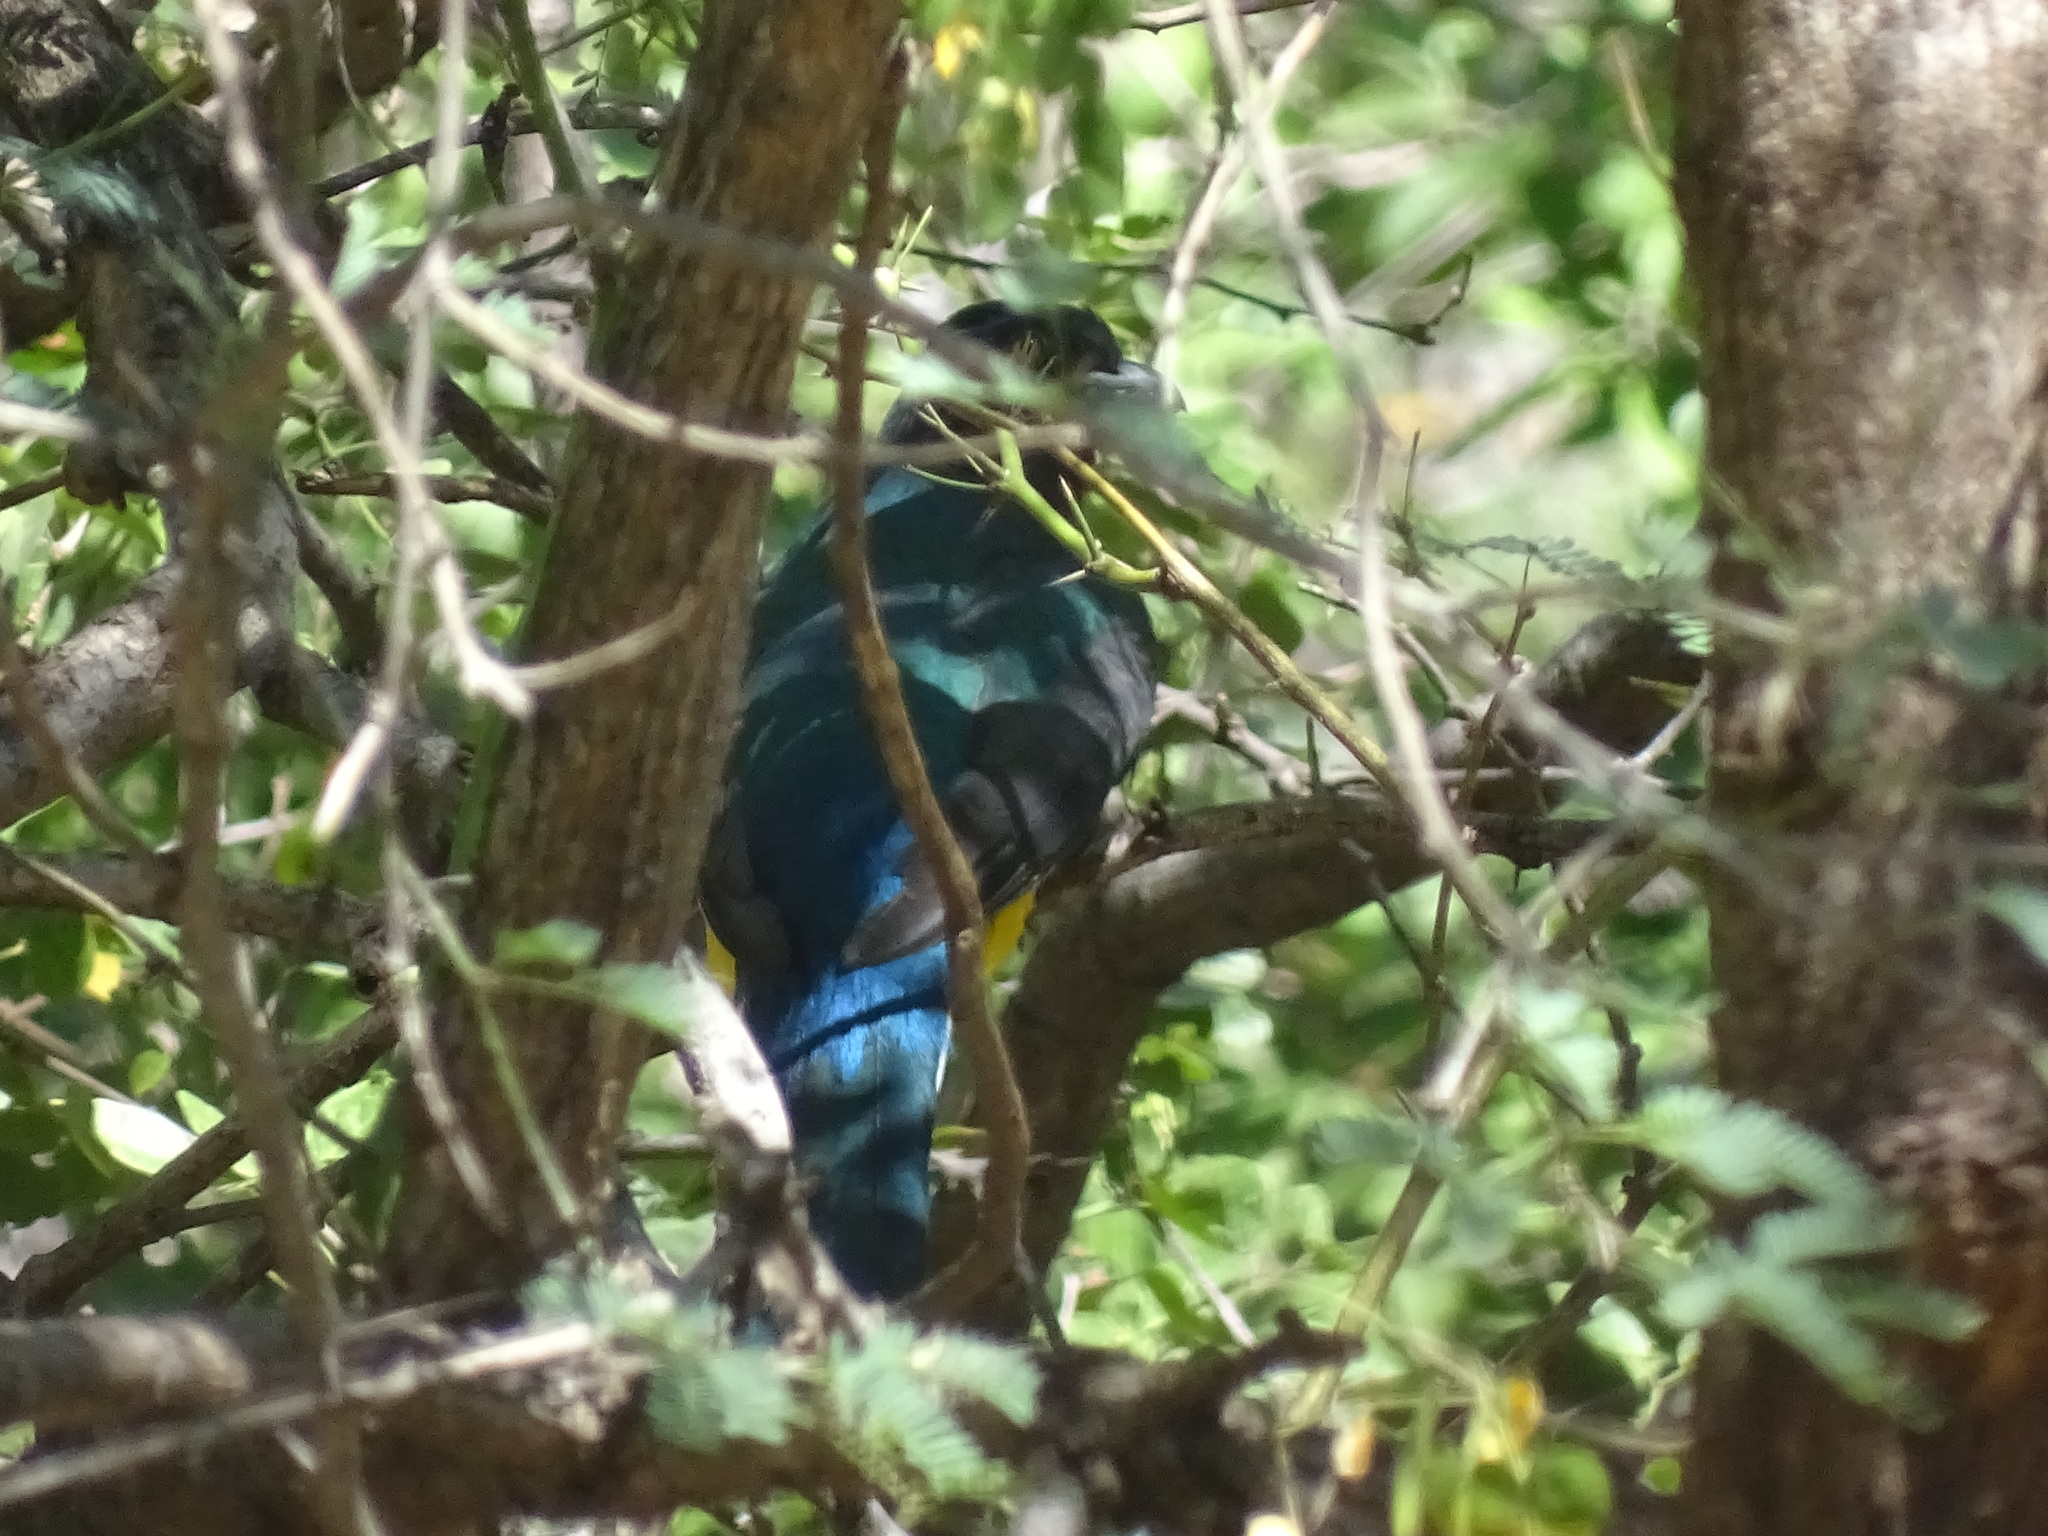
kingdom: Animalia
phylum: Chordata
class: Aves
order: Trogoniformes
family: Trogonidae
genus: Trogon
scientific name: Trogon citreolus
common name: Citreoline trogon
